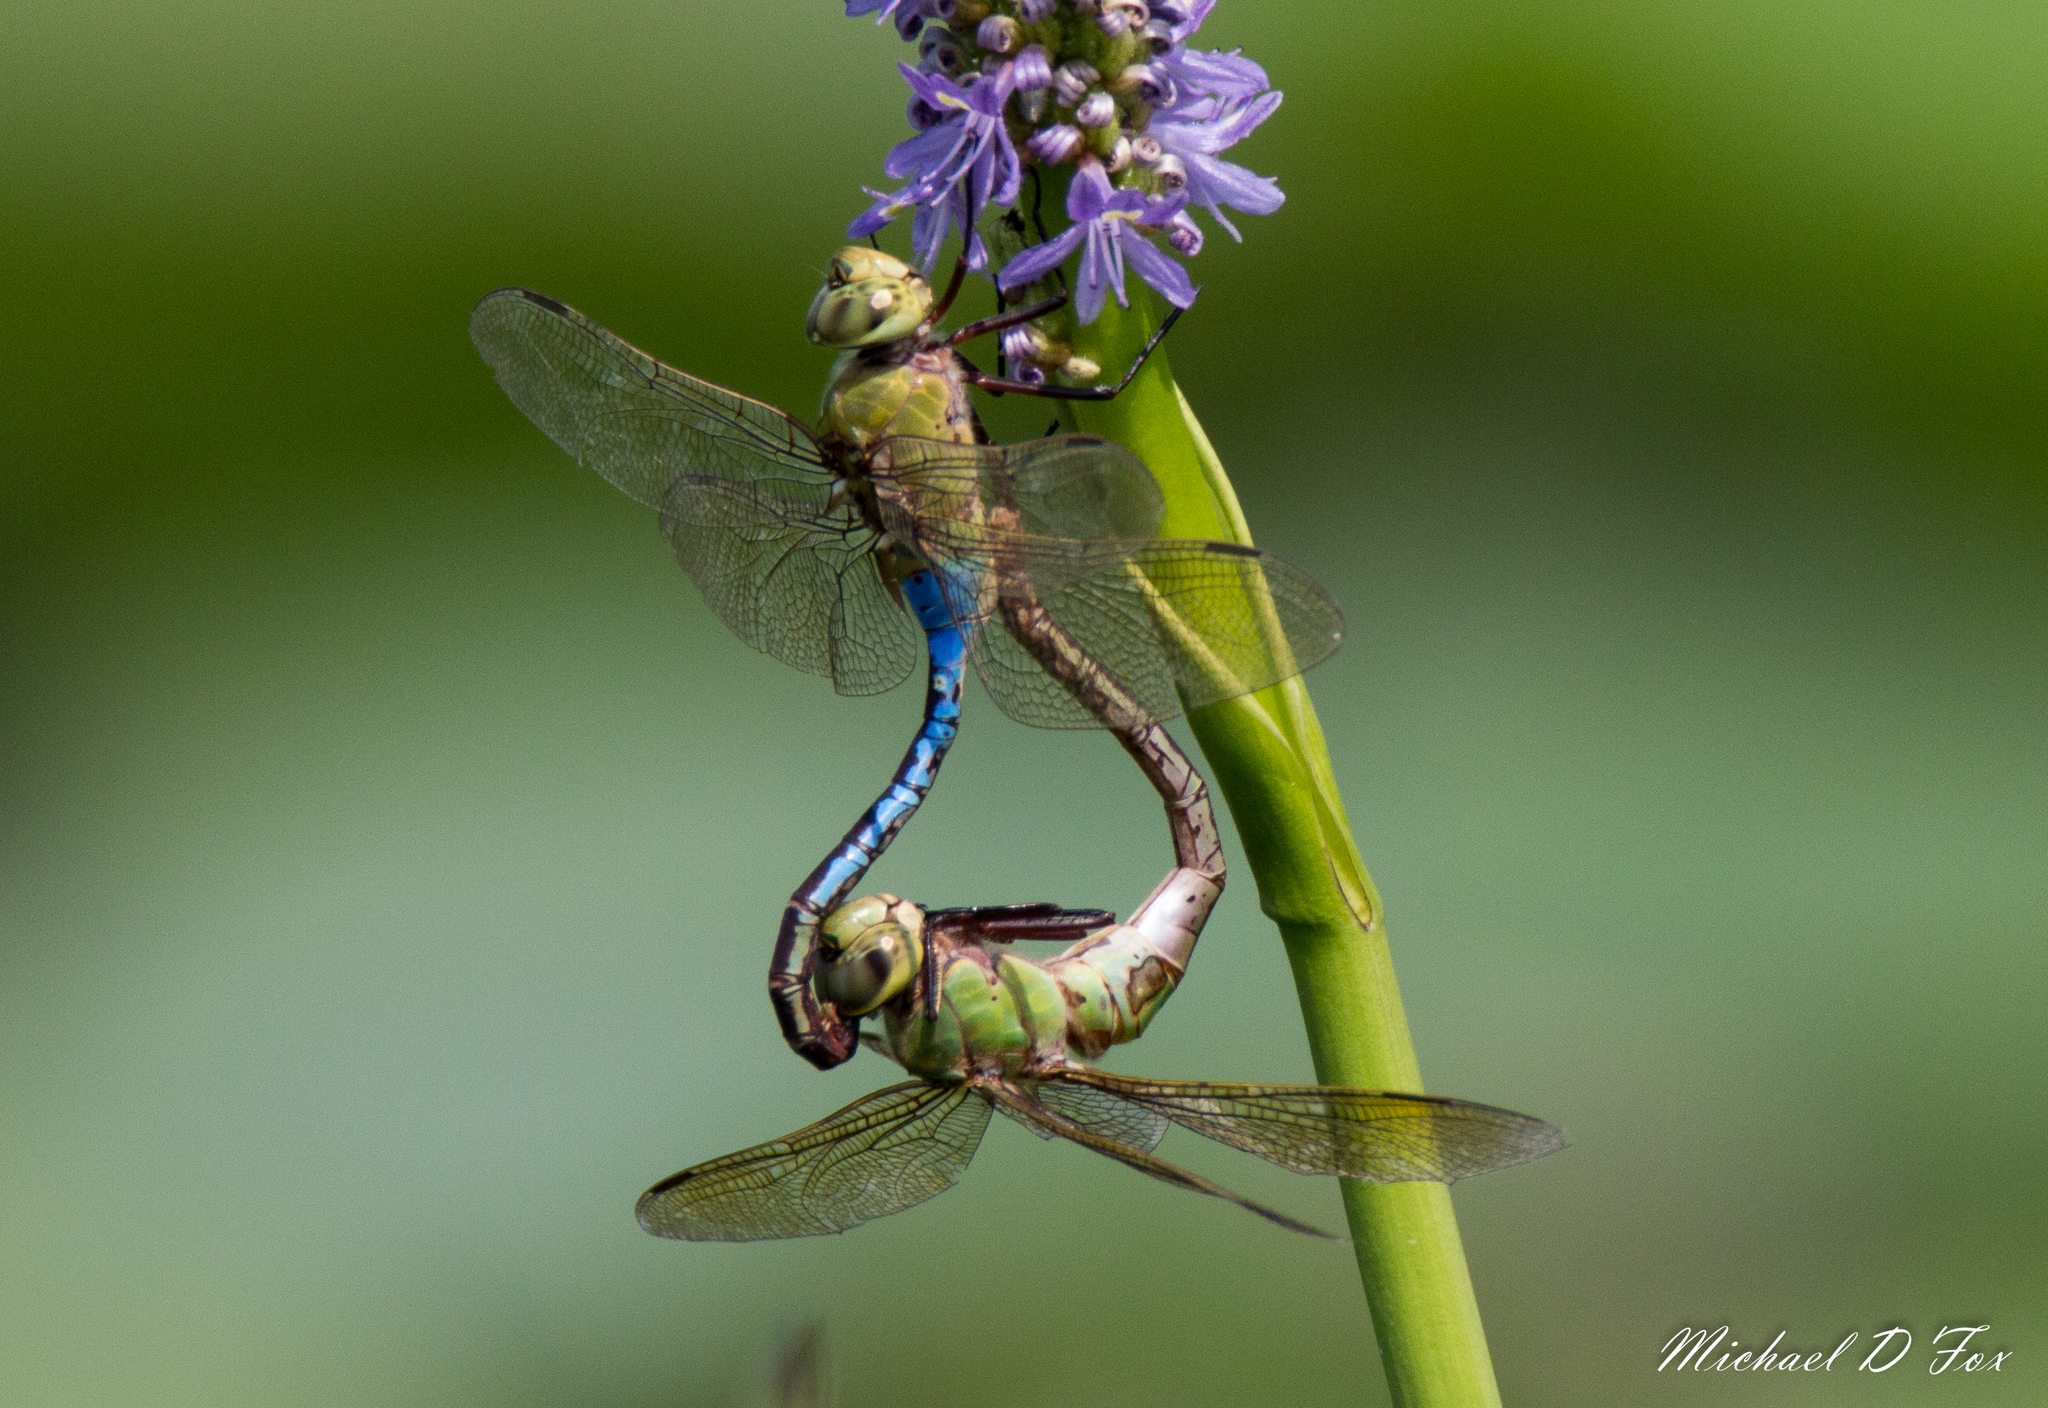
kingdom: Animalia
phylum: Arthropoda
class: Insecta
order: Odonata
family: Aeshnidae
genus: Anax
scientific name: Anax junius
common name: Common green darner
